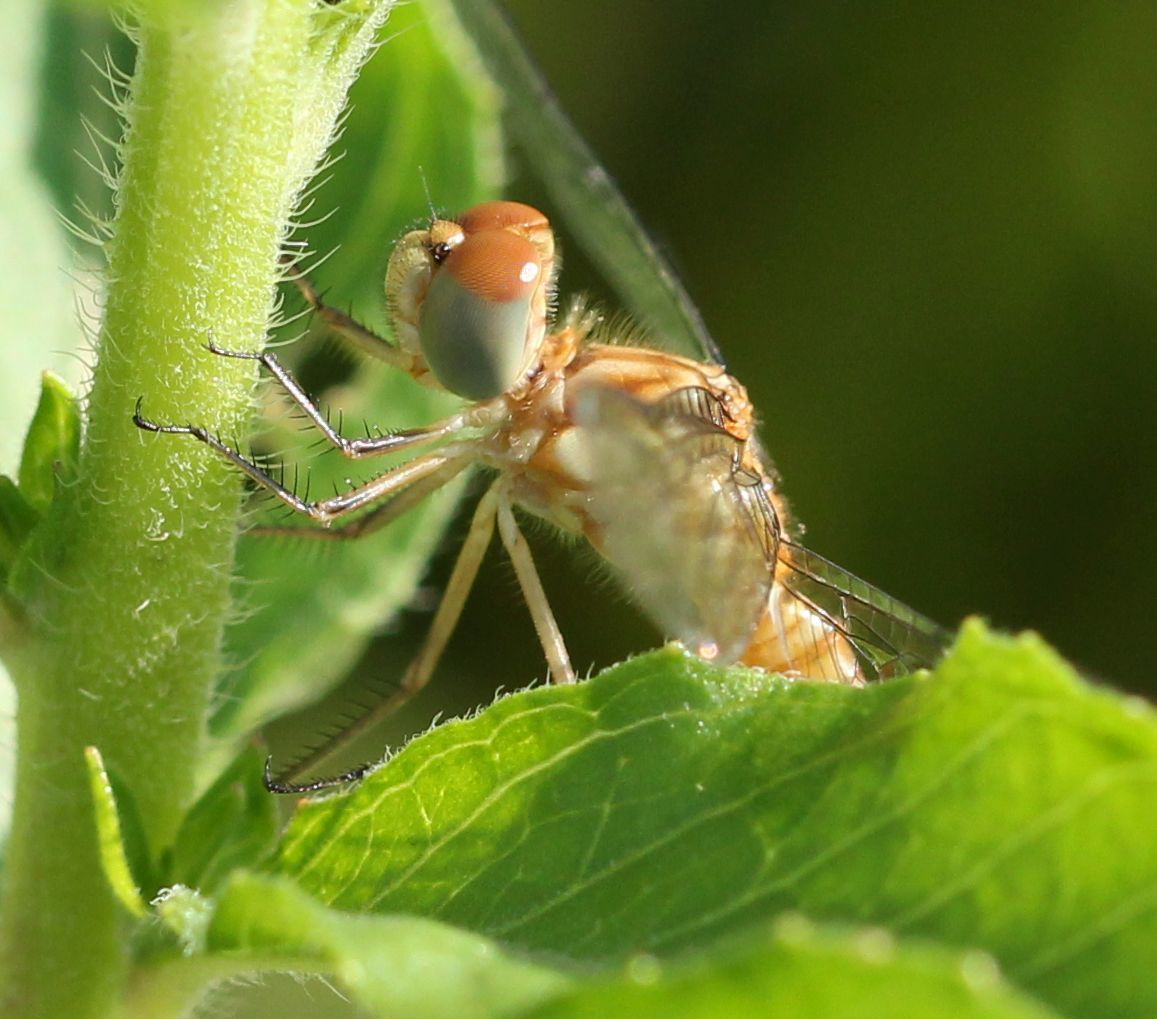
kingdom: Animalia
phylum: Arthropoda
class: Insecta
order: Odonata
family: Libellulidae
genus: Sympetrum
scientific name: Sympetrum ambiguum
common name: Blue-faced meadowhawk
